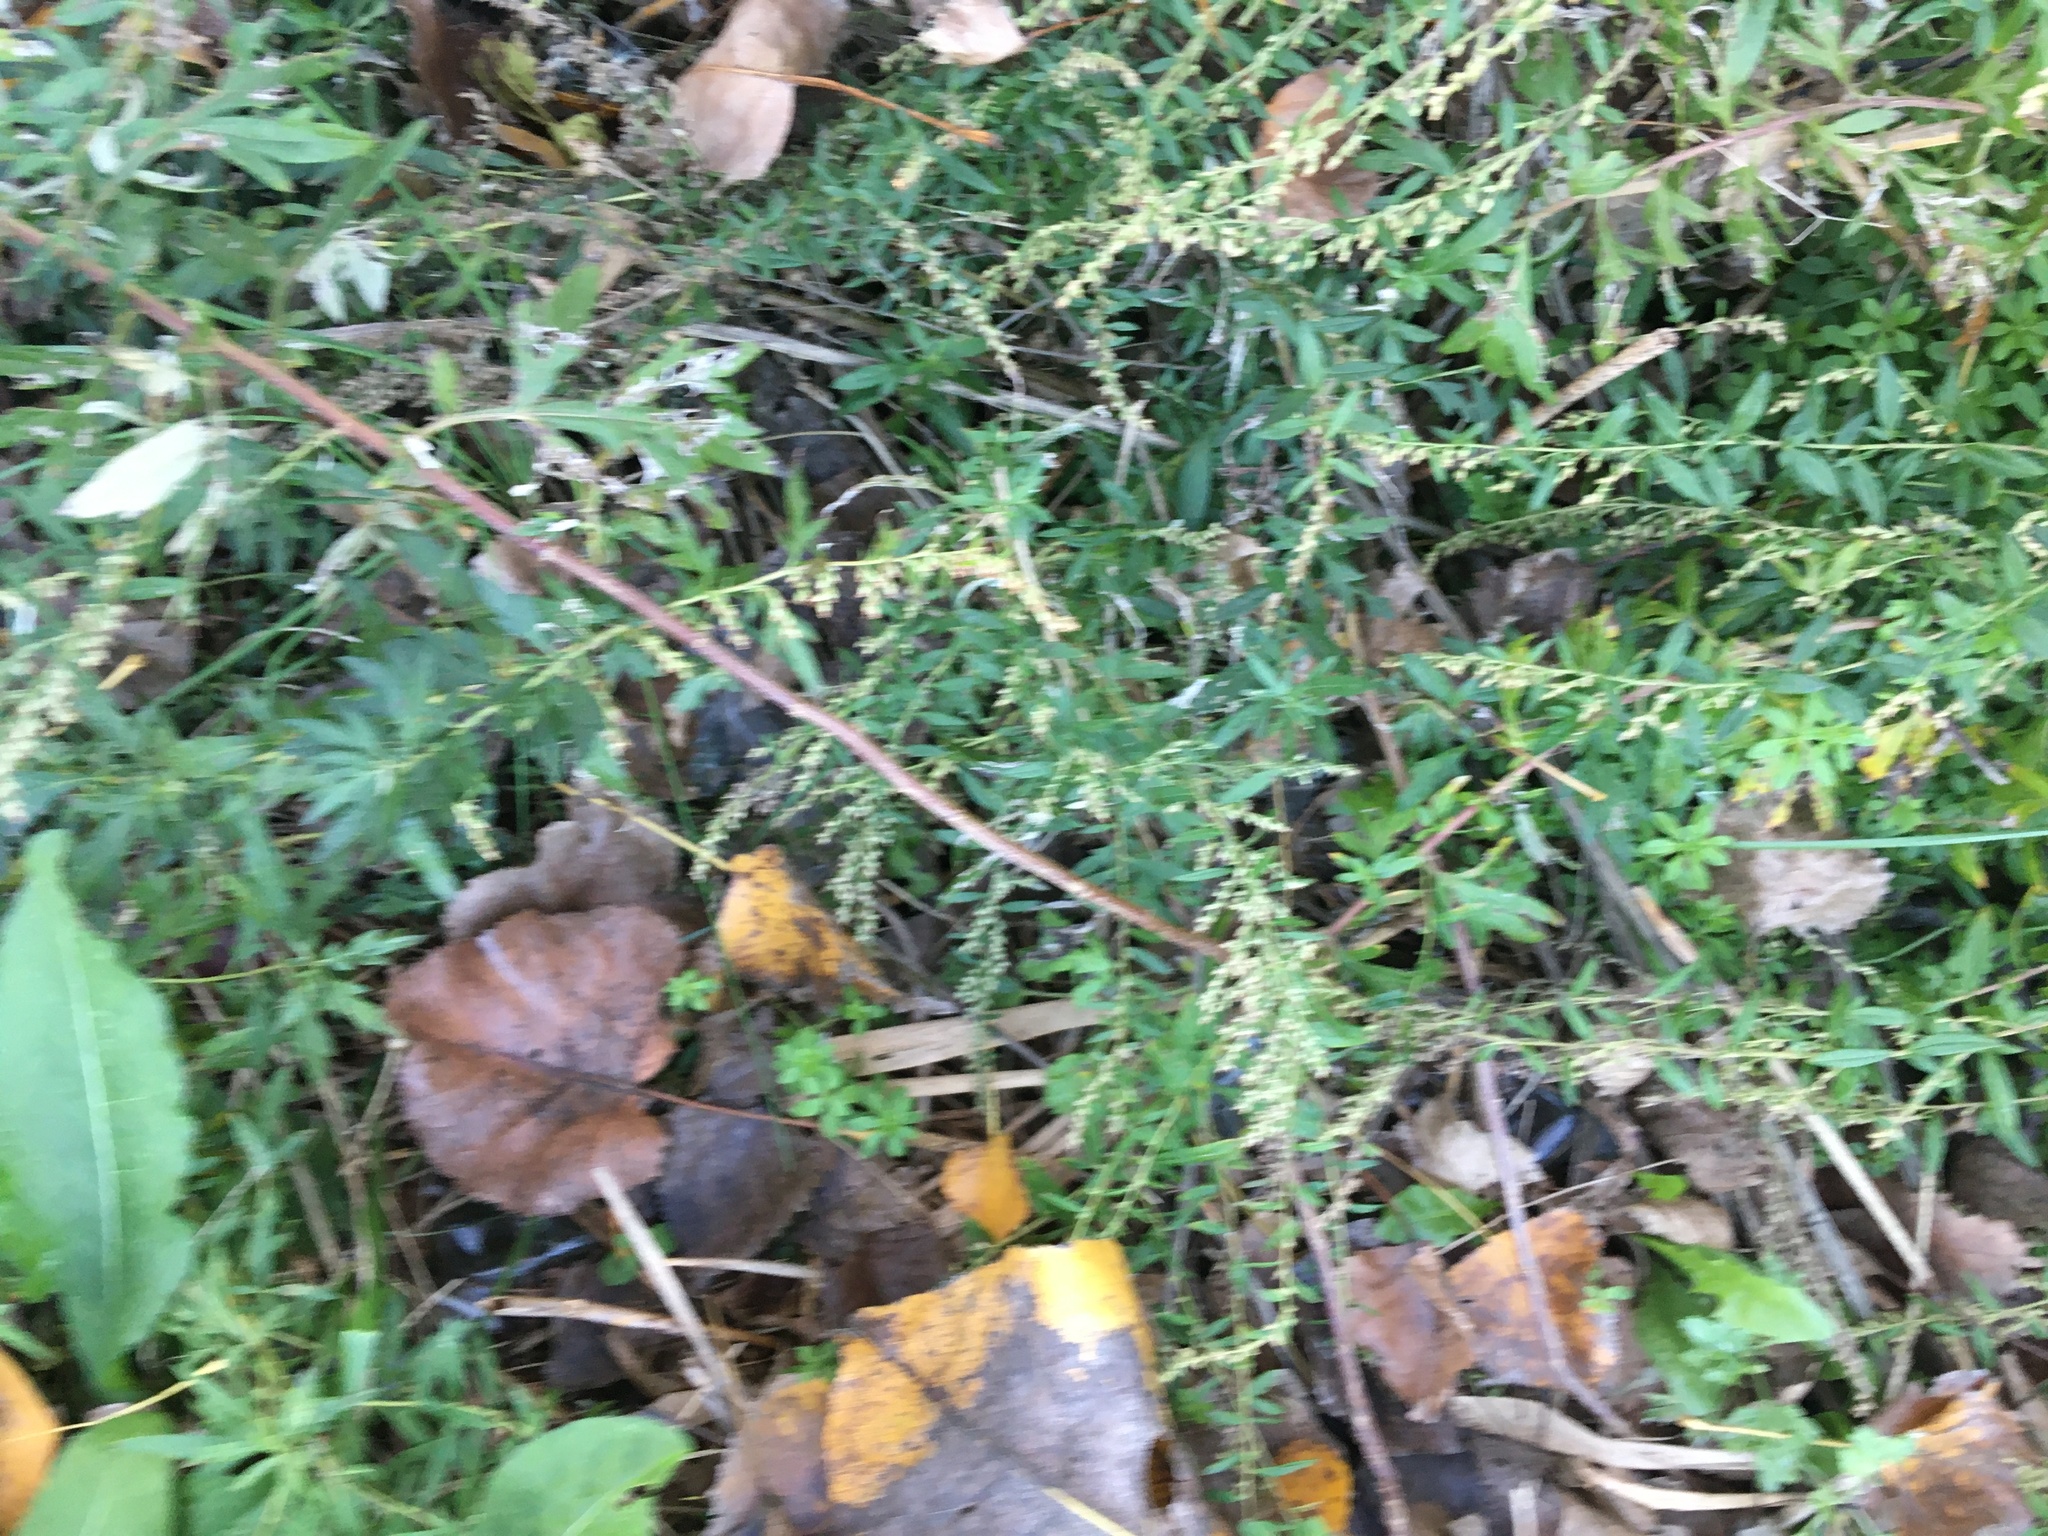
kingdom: Plantae
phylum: Tracheophyta
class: Magnoliopsida
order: Asterales
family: Asteraceae
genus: Artemisia
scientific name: Artemisia vulgaris
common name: Mugwort
